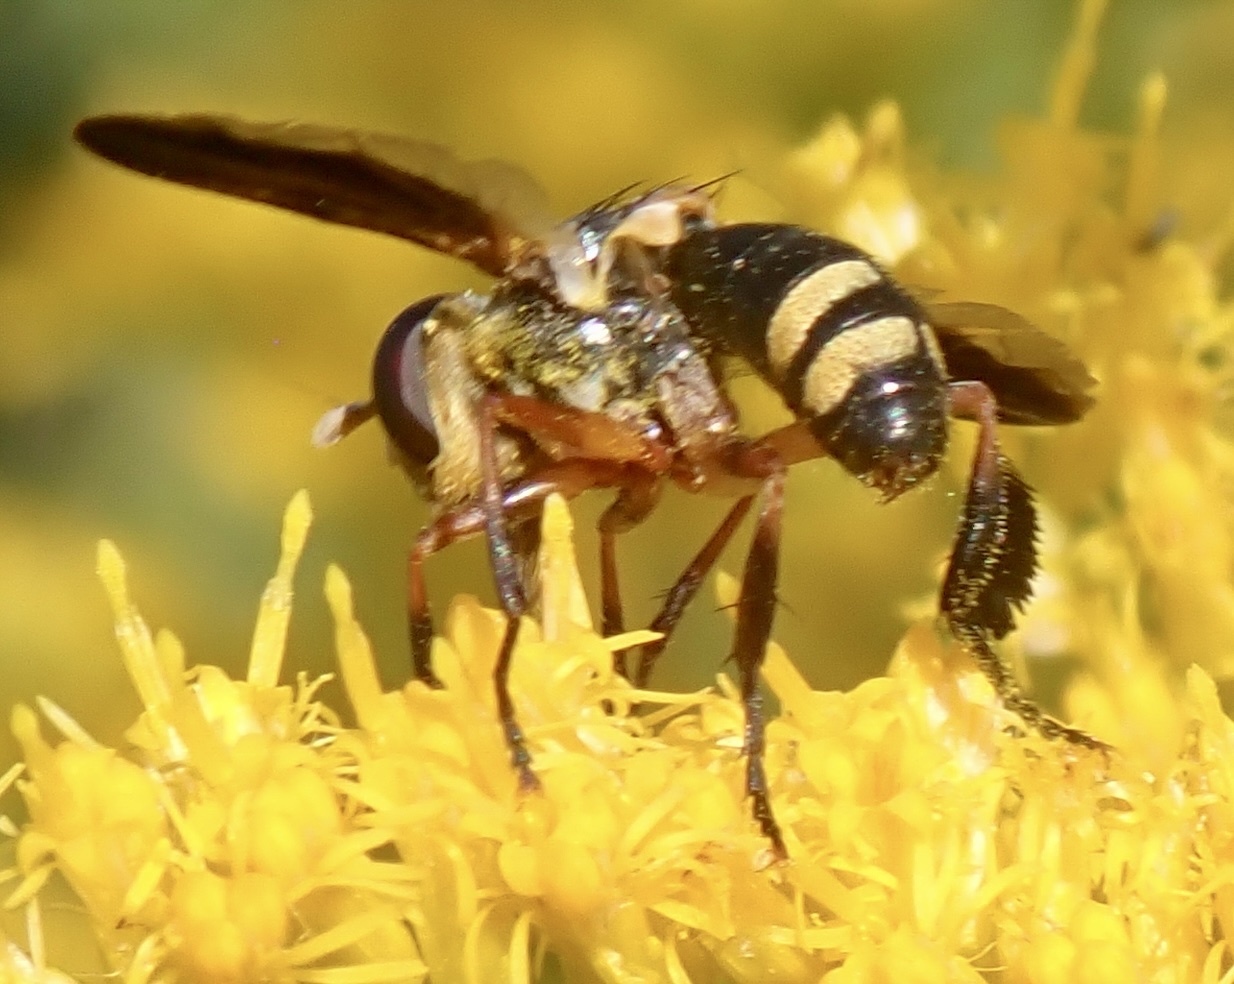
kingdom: Animalia
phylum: Arthropoda
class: Insecta
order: Diptera
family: Tachinidae
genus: Trichopoda
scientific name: Trichopoda plumipes
